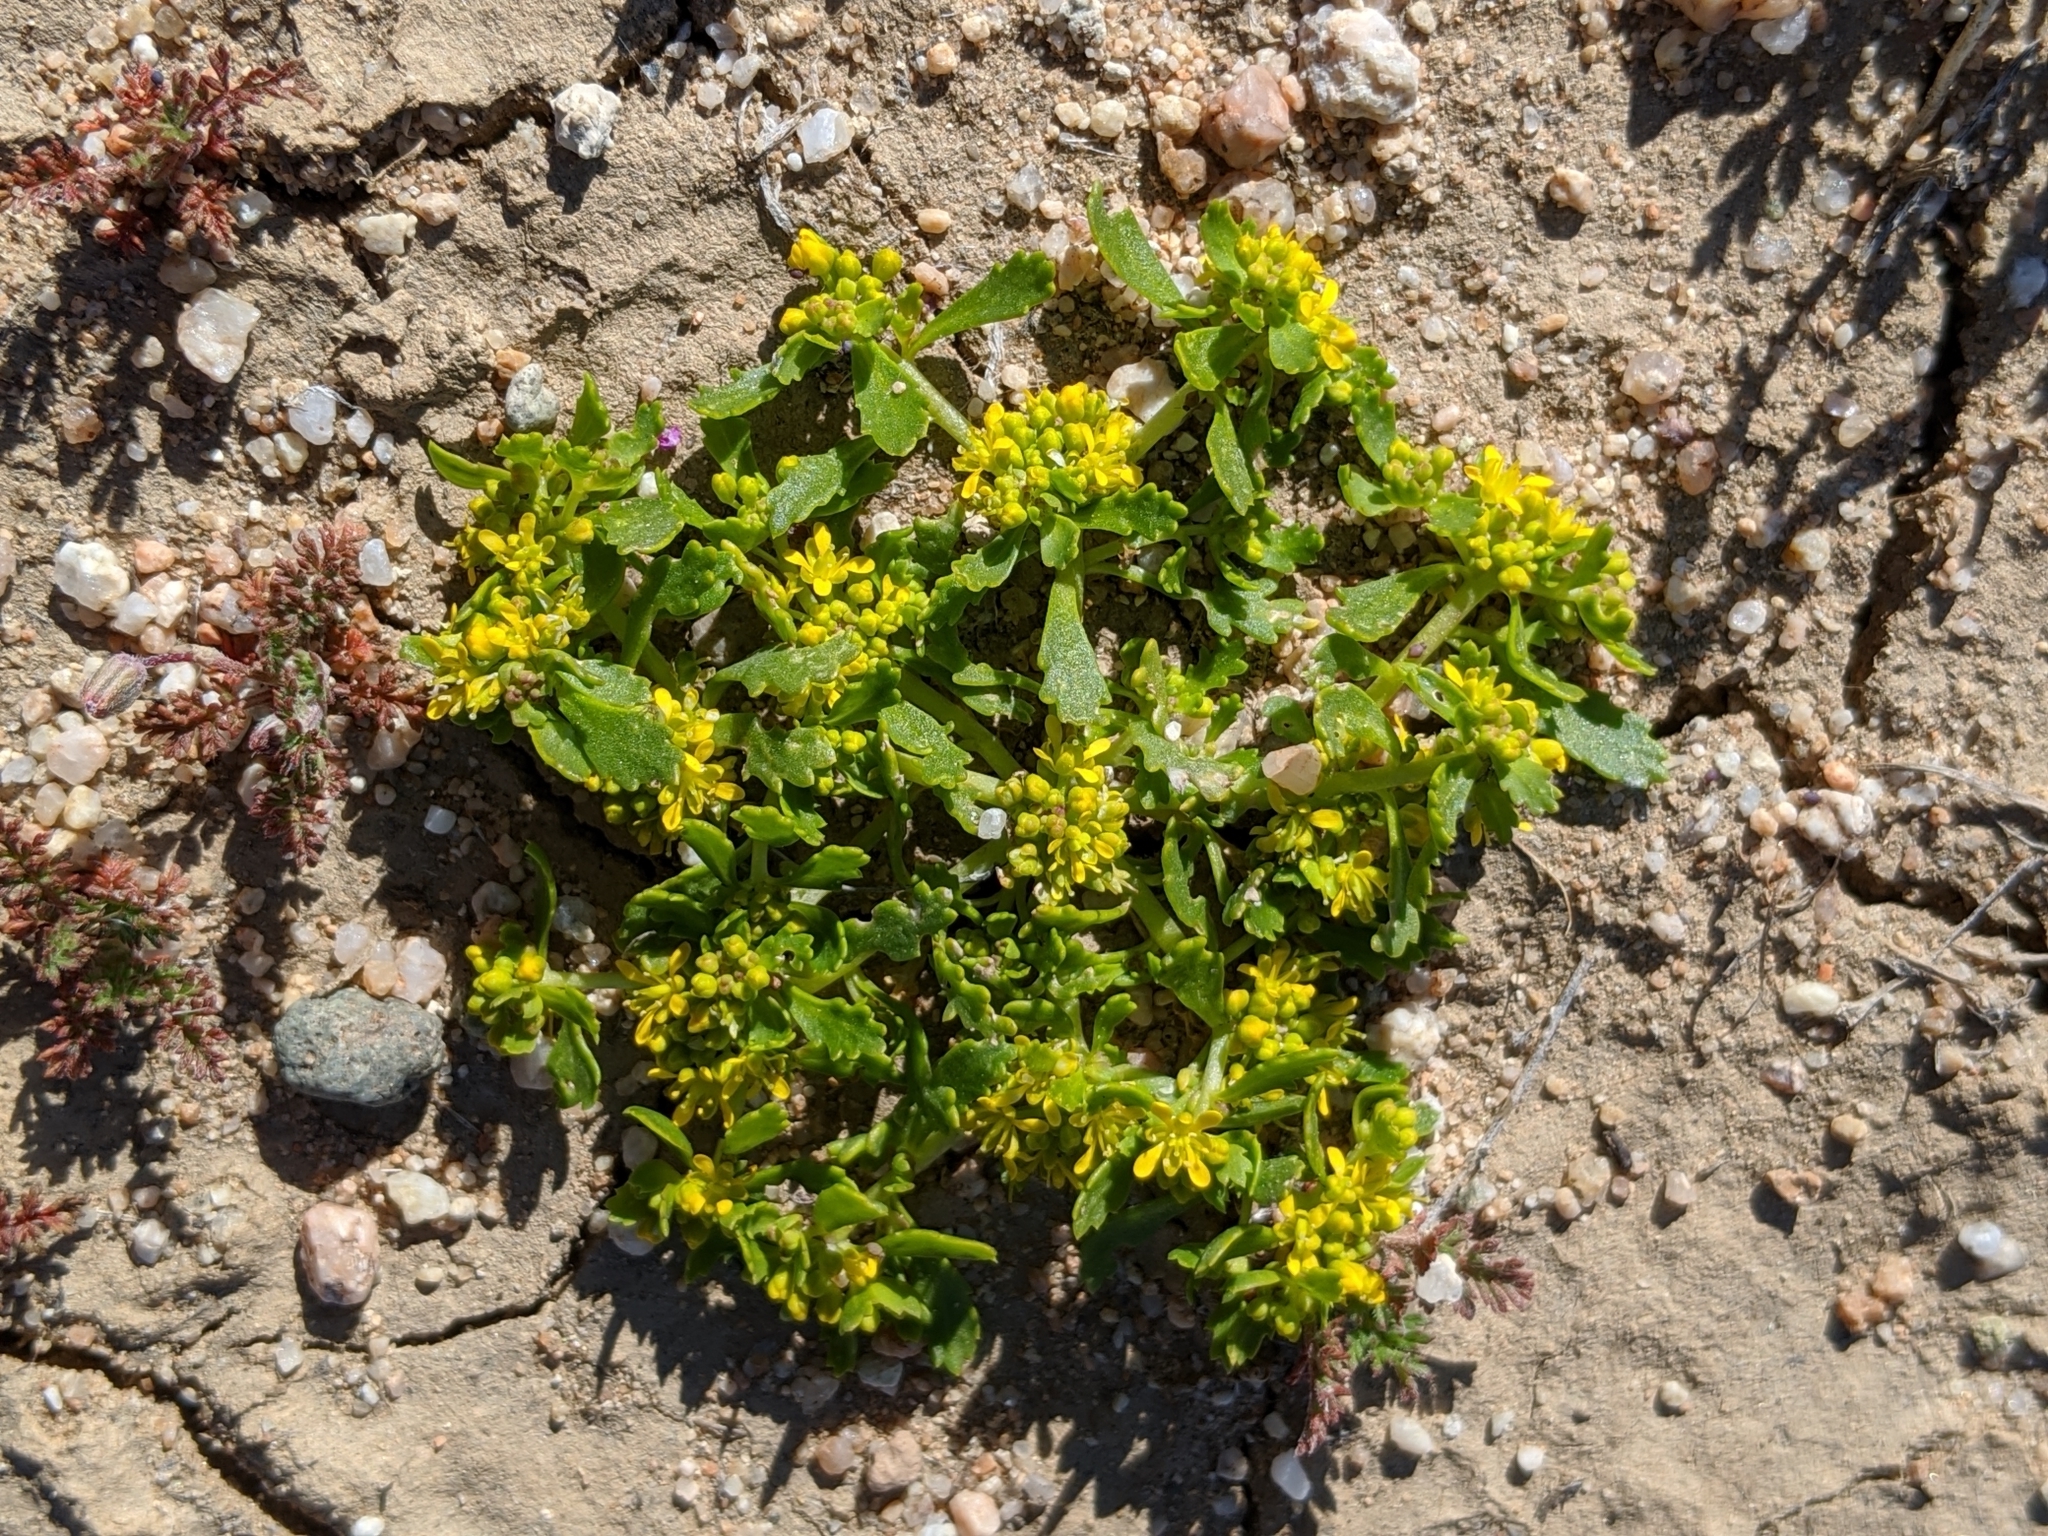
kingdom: Plantae
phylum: Tracheophyta
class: Magnoliopsida
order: Brassicales
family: Brassicaceae
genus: Lepidium
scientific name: Lepidium flavum
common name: Yellow pepperwort
